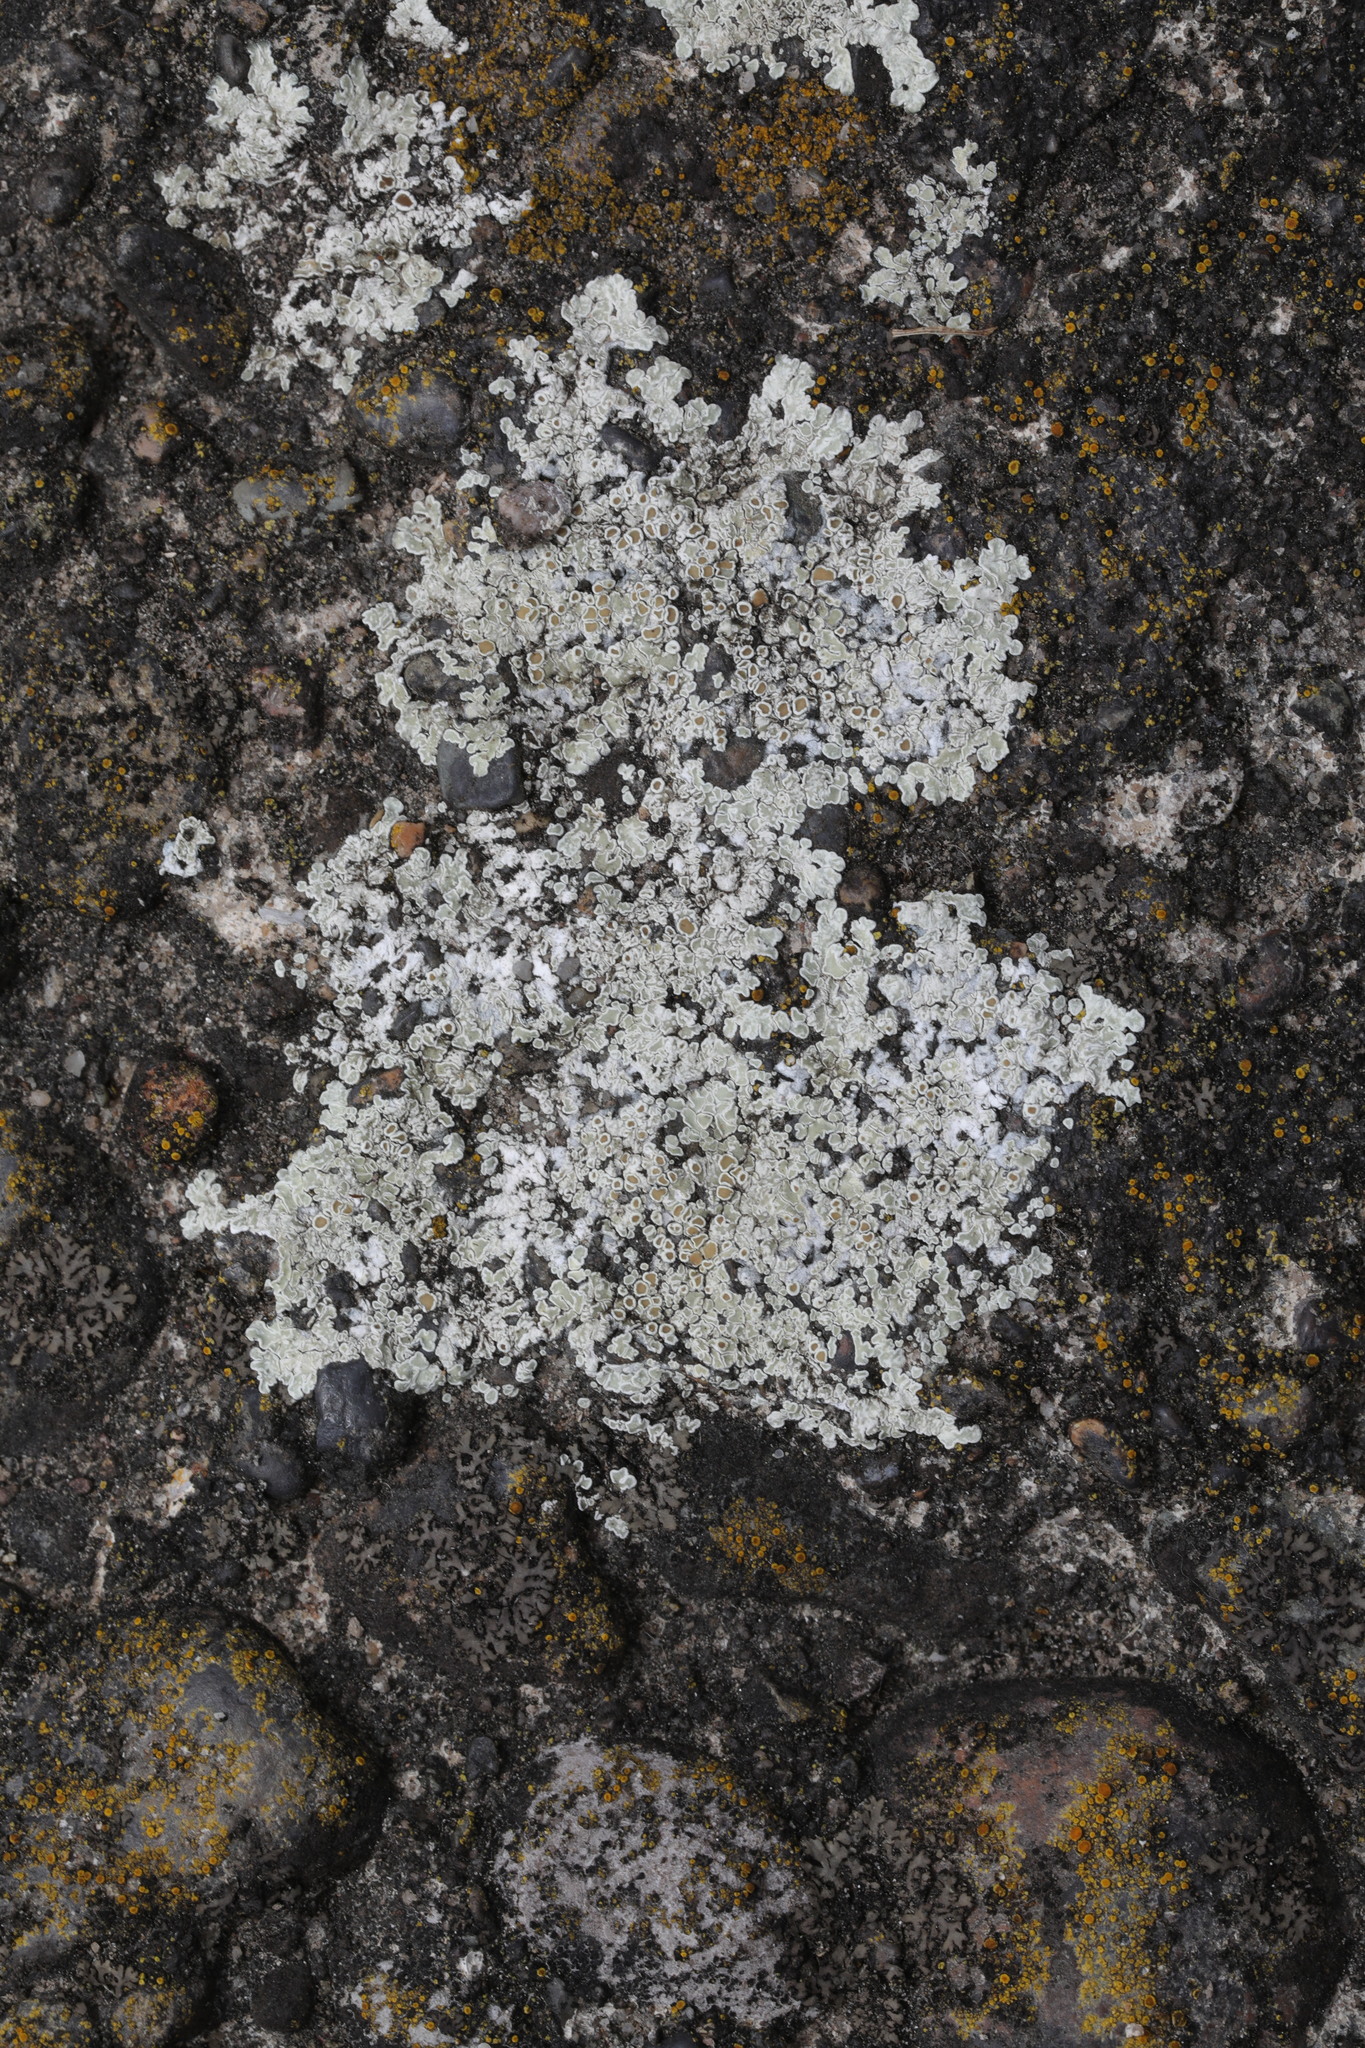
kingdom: Fungi
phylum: Ascomycota
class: Lecanoromycetes
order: Lecanorales
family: Lecanoraceae
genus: Protoparmeliopsis
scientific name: Protoparmeliopsis muralis
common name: Stonewall rim lichen
